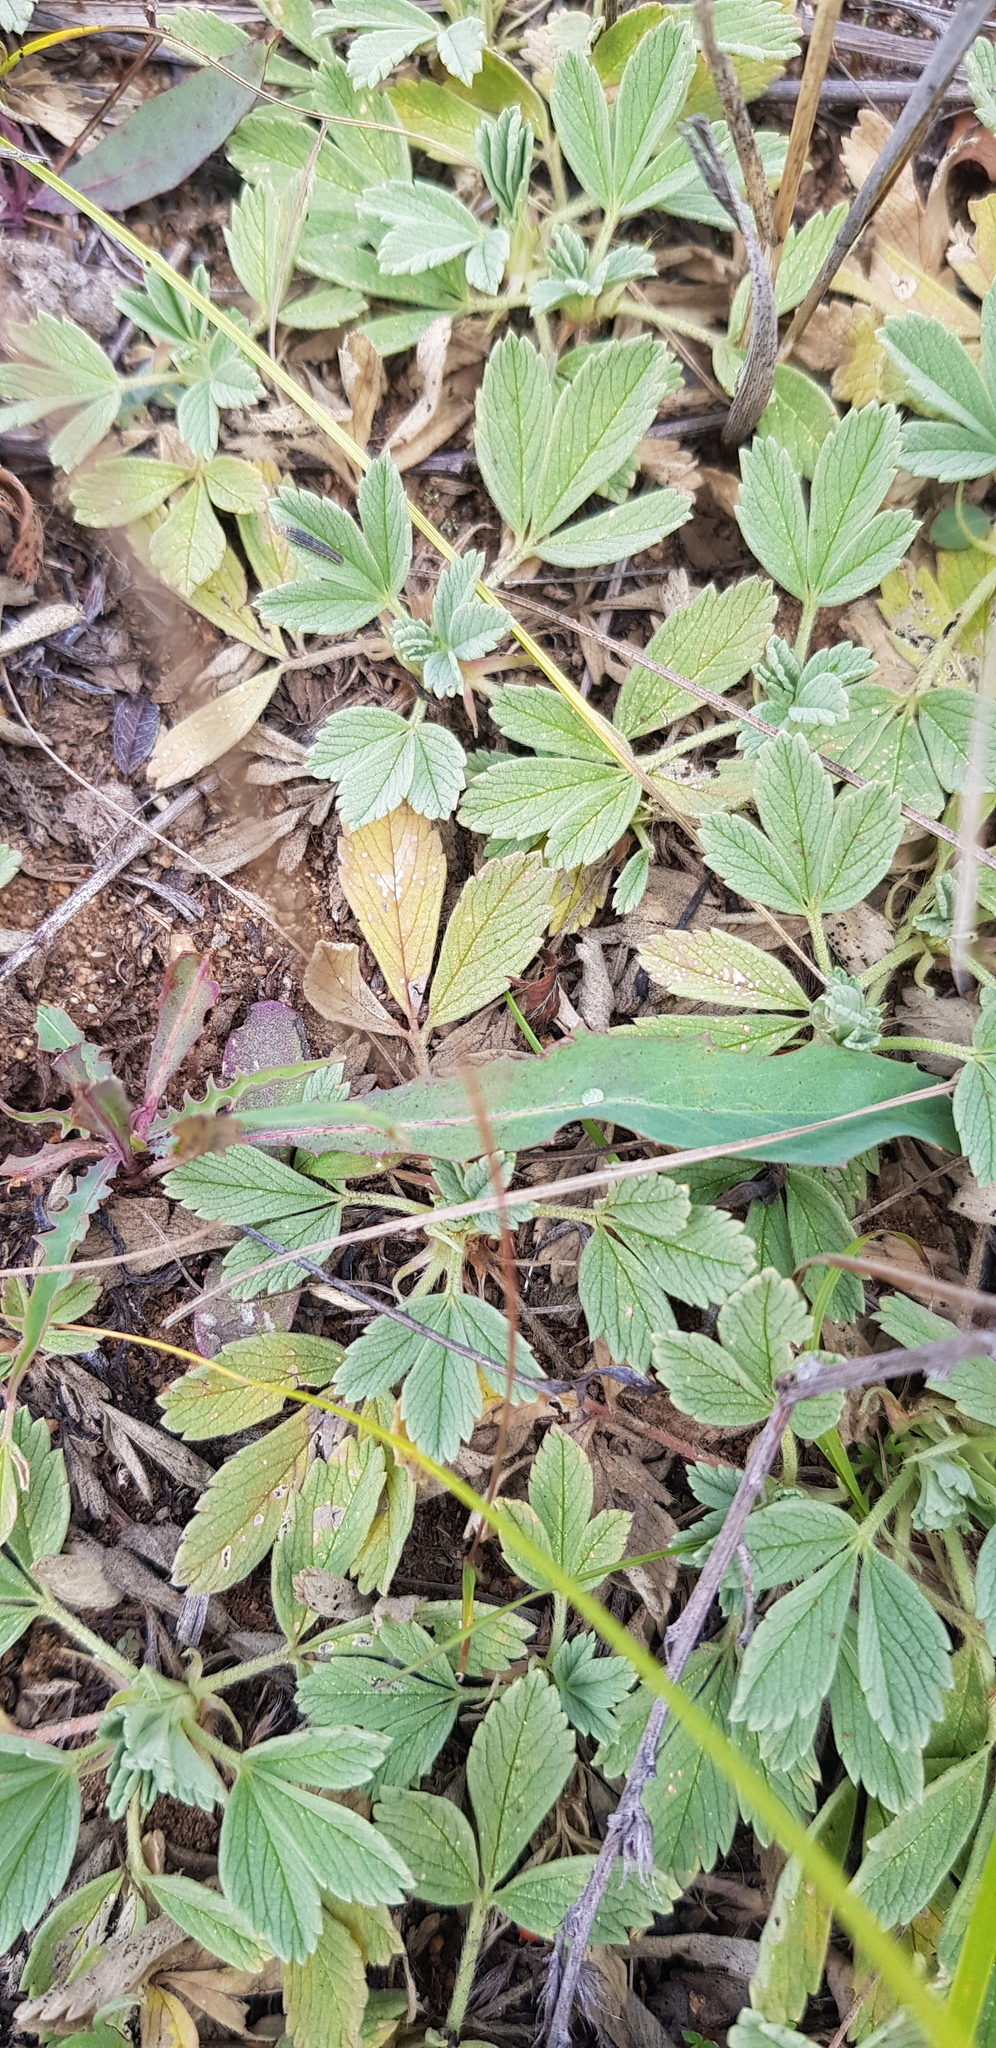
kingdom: Plantae
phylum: Tracheophyta
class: Magnoliopsida
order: Rosales
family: Rosaceae
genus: Potentilla
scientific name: Potentilla acaulis
